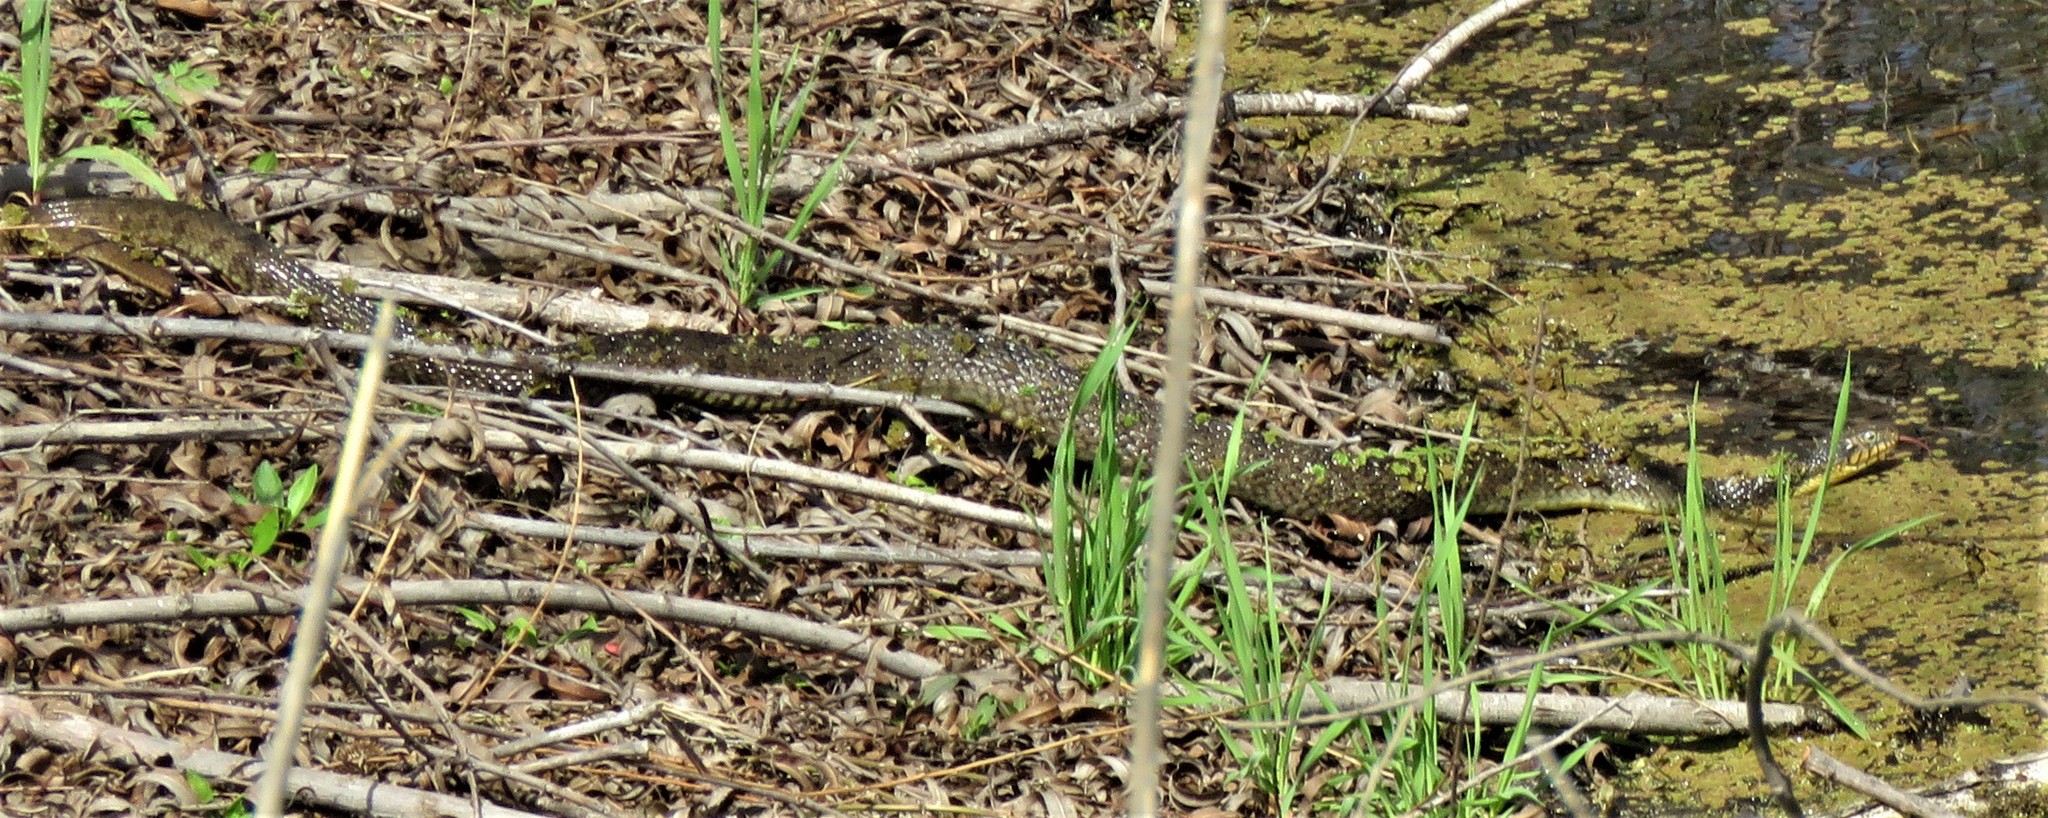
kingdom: Animalia
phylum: Chordata
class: Squamata
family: Colubridae
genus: Nerodia
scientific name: Nerodia erythrogaster
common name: Plainbelly water snake
